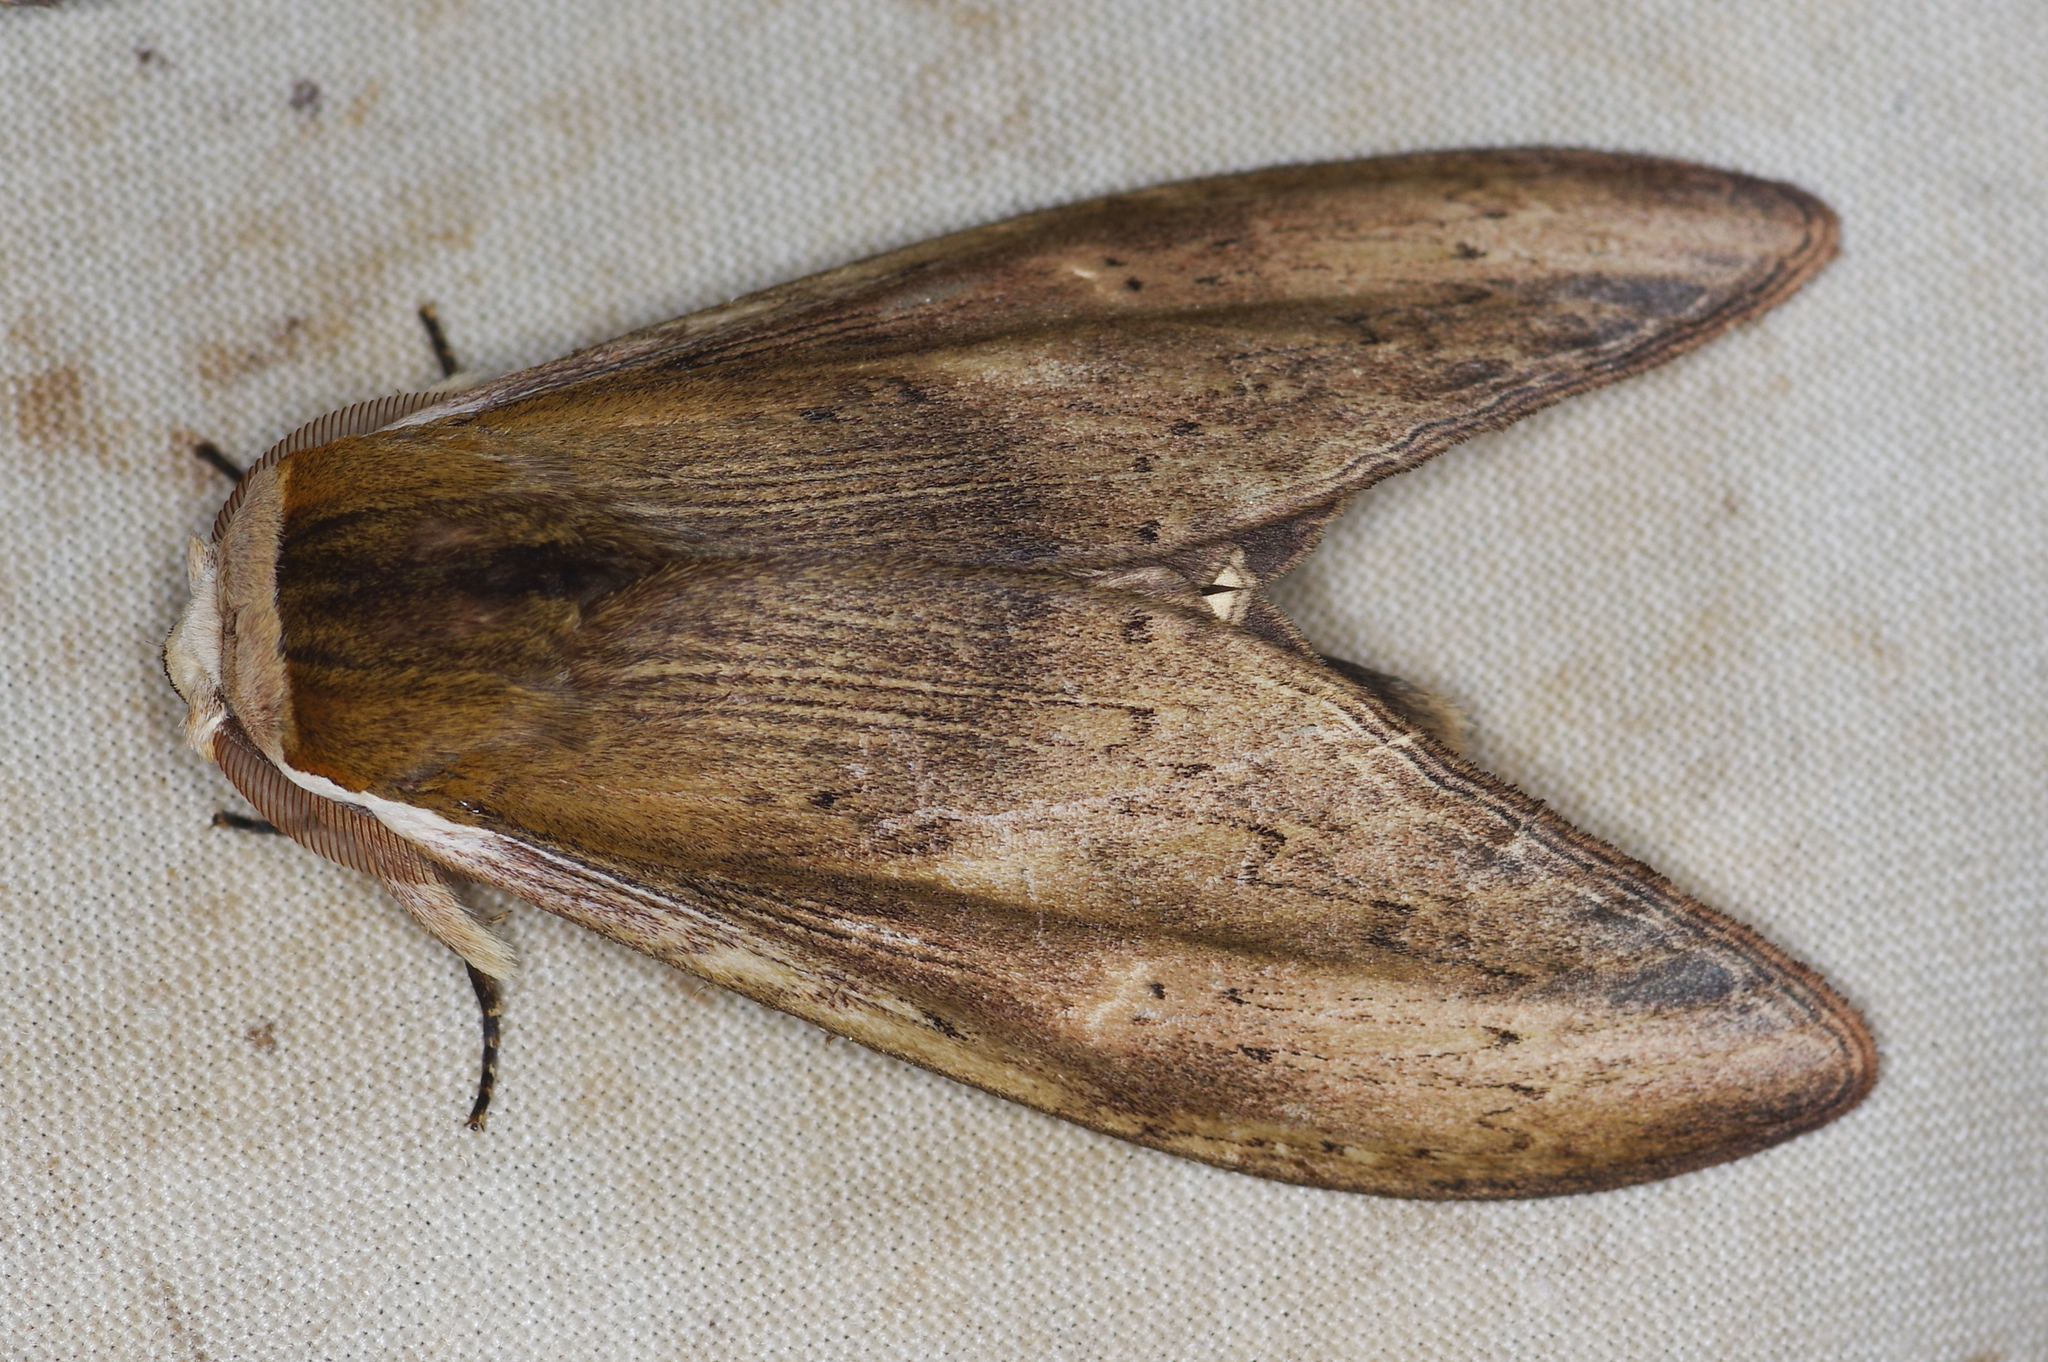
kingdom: Animalia
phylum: Arthropoda
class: Insecta
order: Lepidoptera
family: Notodontidae
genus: Truncaptera
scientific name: Truncaptera
